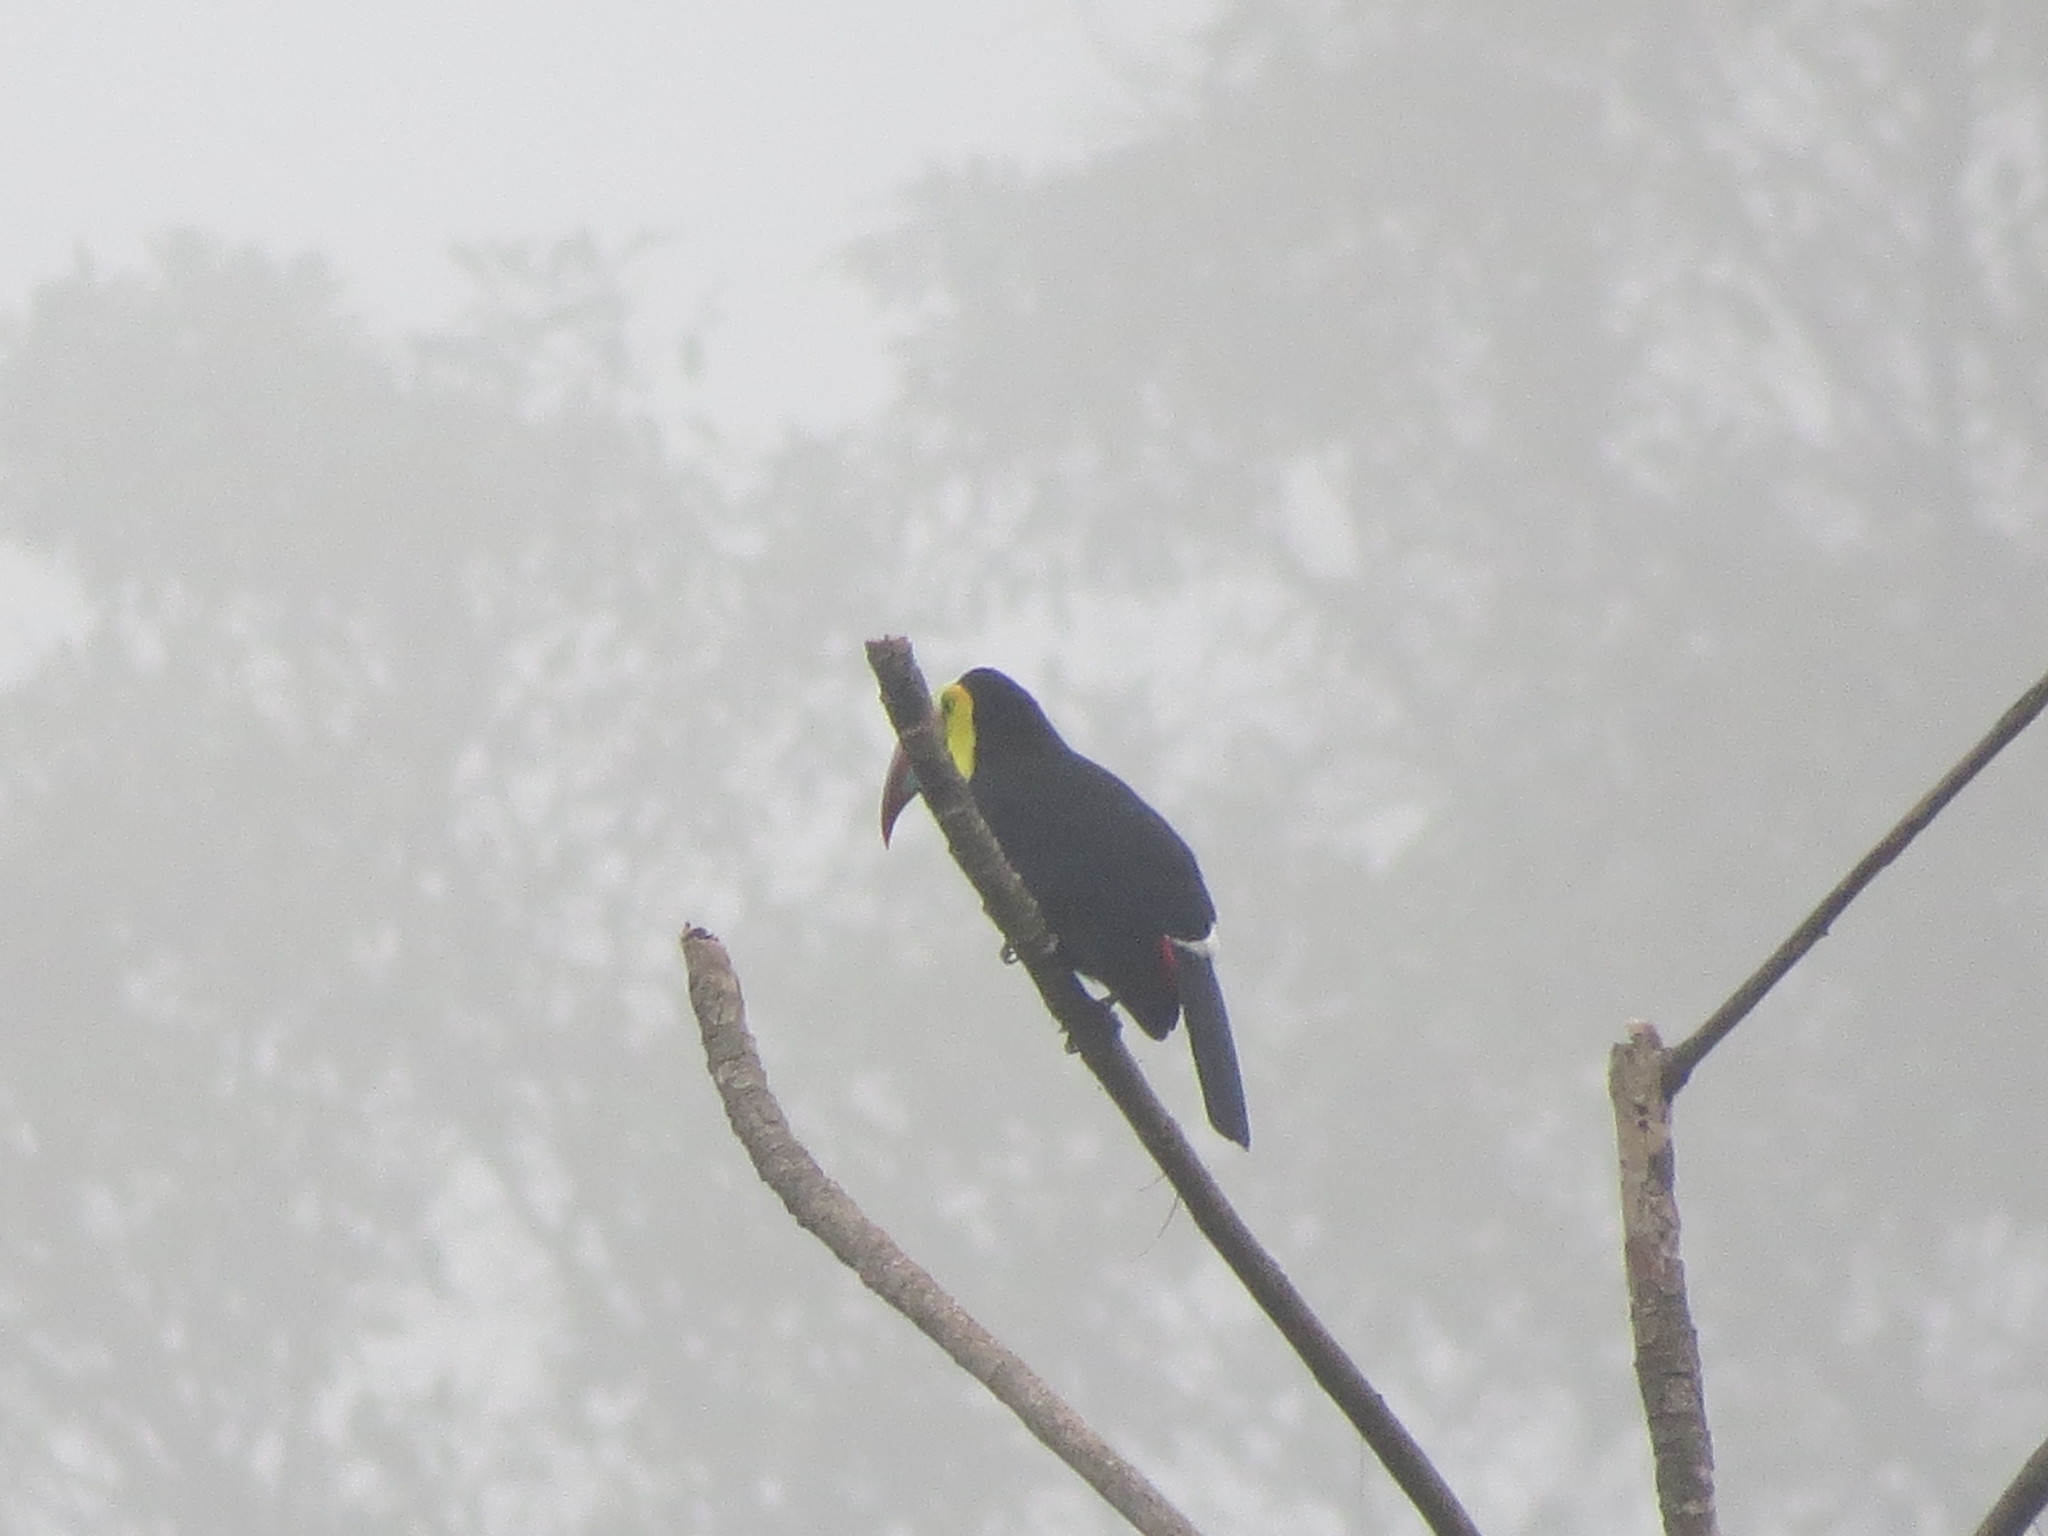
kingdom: Animalia
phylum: Chordata
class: Aves
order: Piciformes
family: Ramphastidae
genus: Ramphastos
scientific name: Ramphastos sulfuratus
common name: Keel-billed toucan
